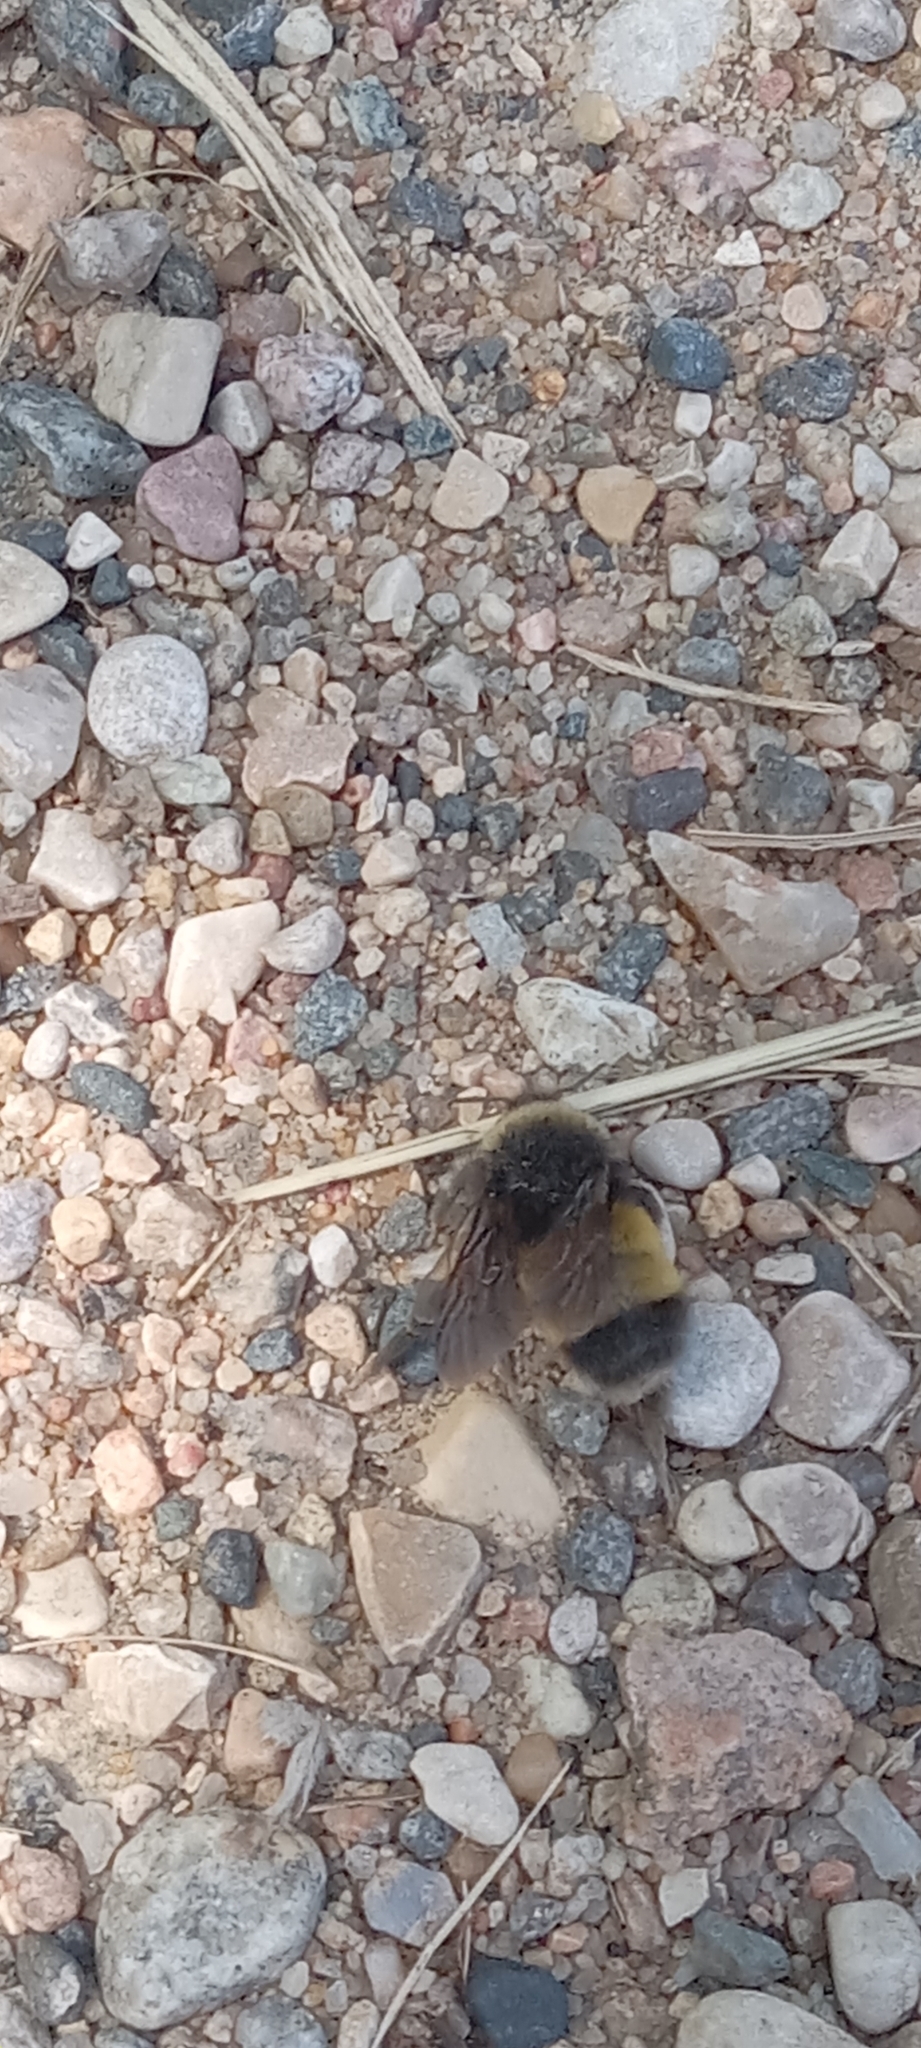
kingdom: Animalia
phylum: Arthropoda
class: Insecta
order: Hymenoptera
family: Apidae
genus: Bombus
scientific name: Bombus terricola
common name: Yellow-banded bumble bee
